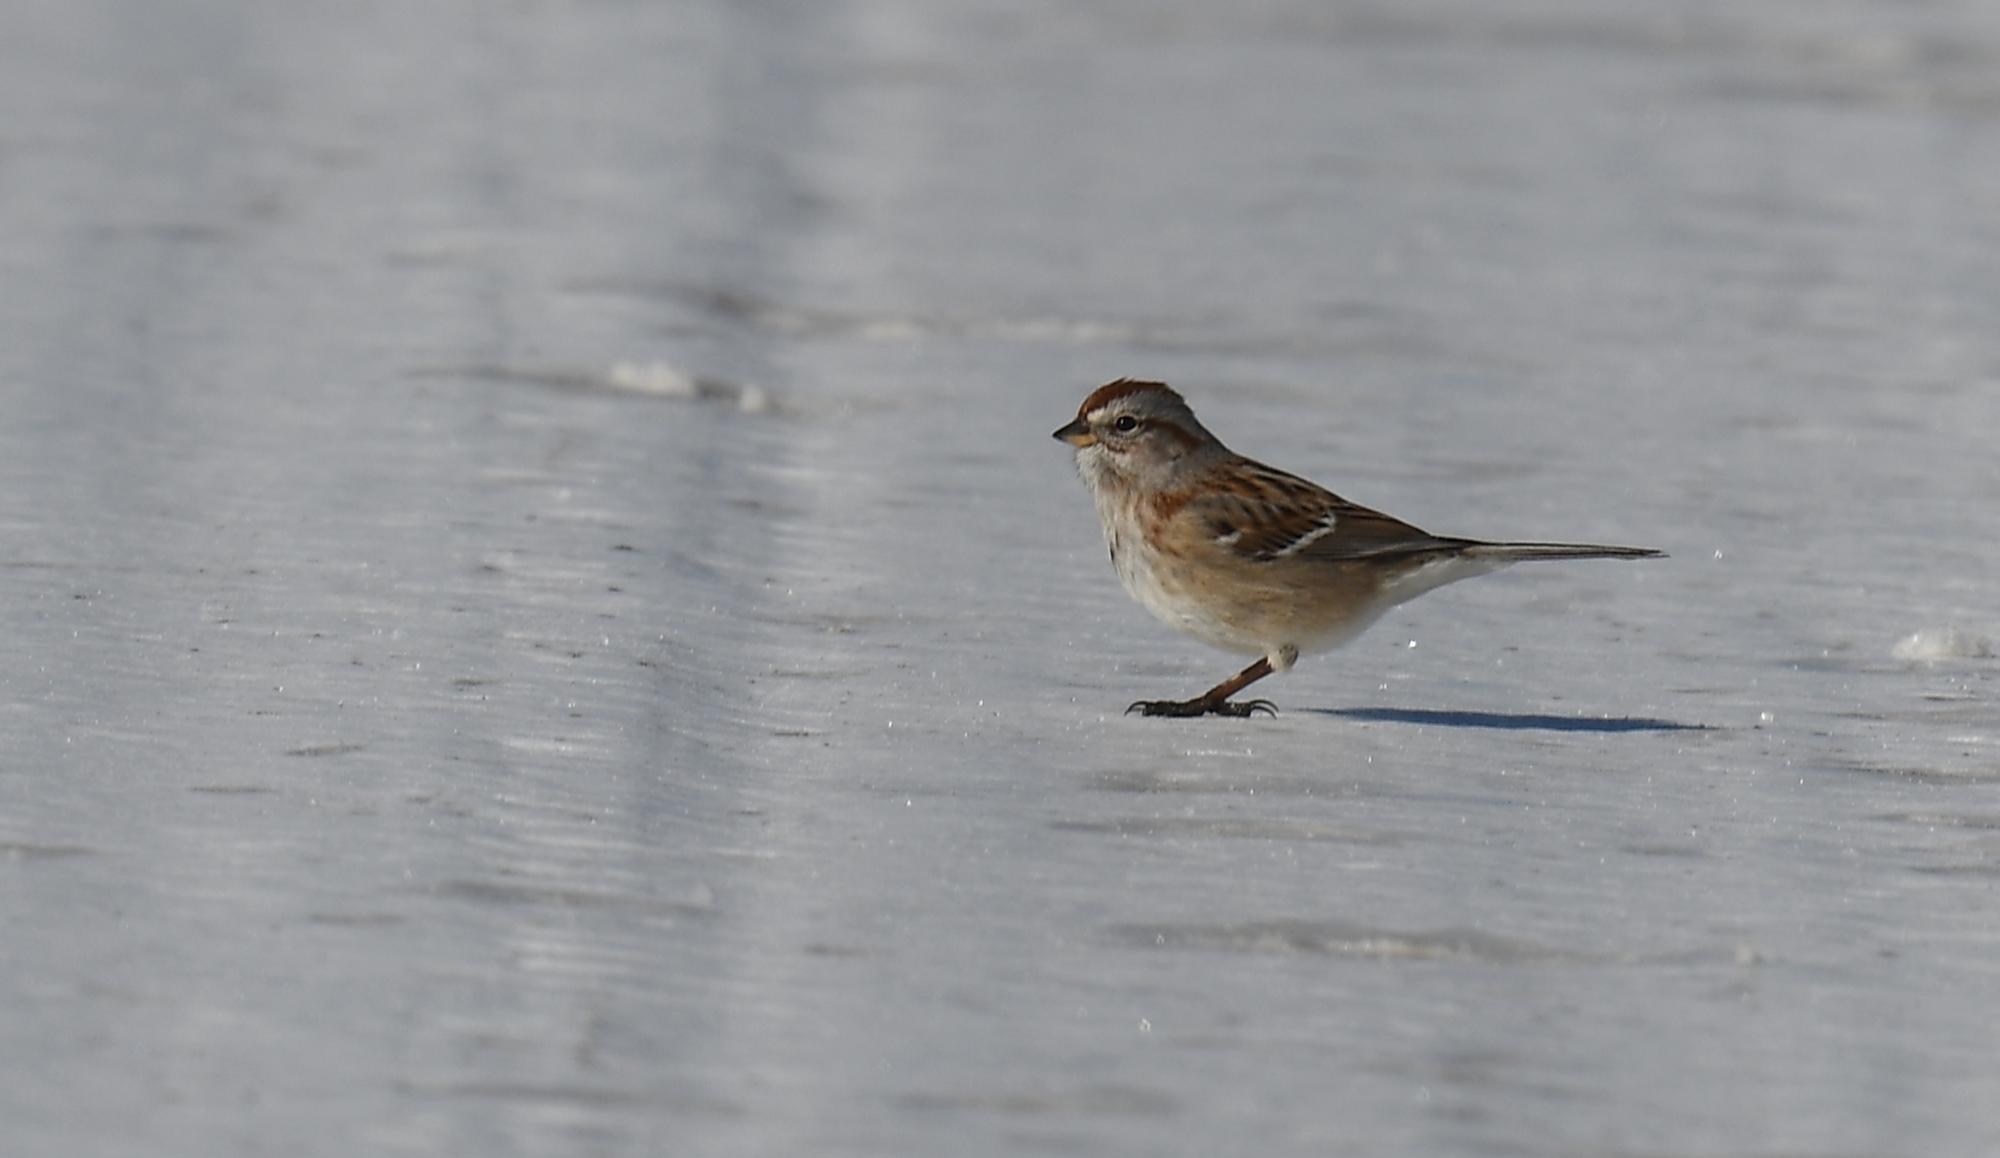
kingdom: Animalia
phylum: Chordata
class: Aves
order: Passeriformes
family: Passerellidae
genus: Spizelloides
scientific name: Spizelloides arborea
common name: American tree sparrow
